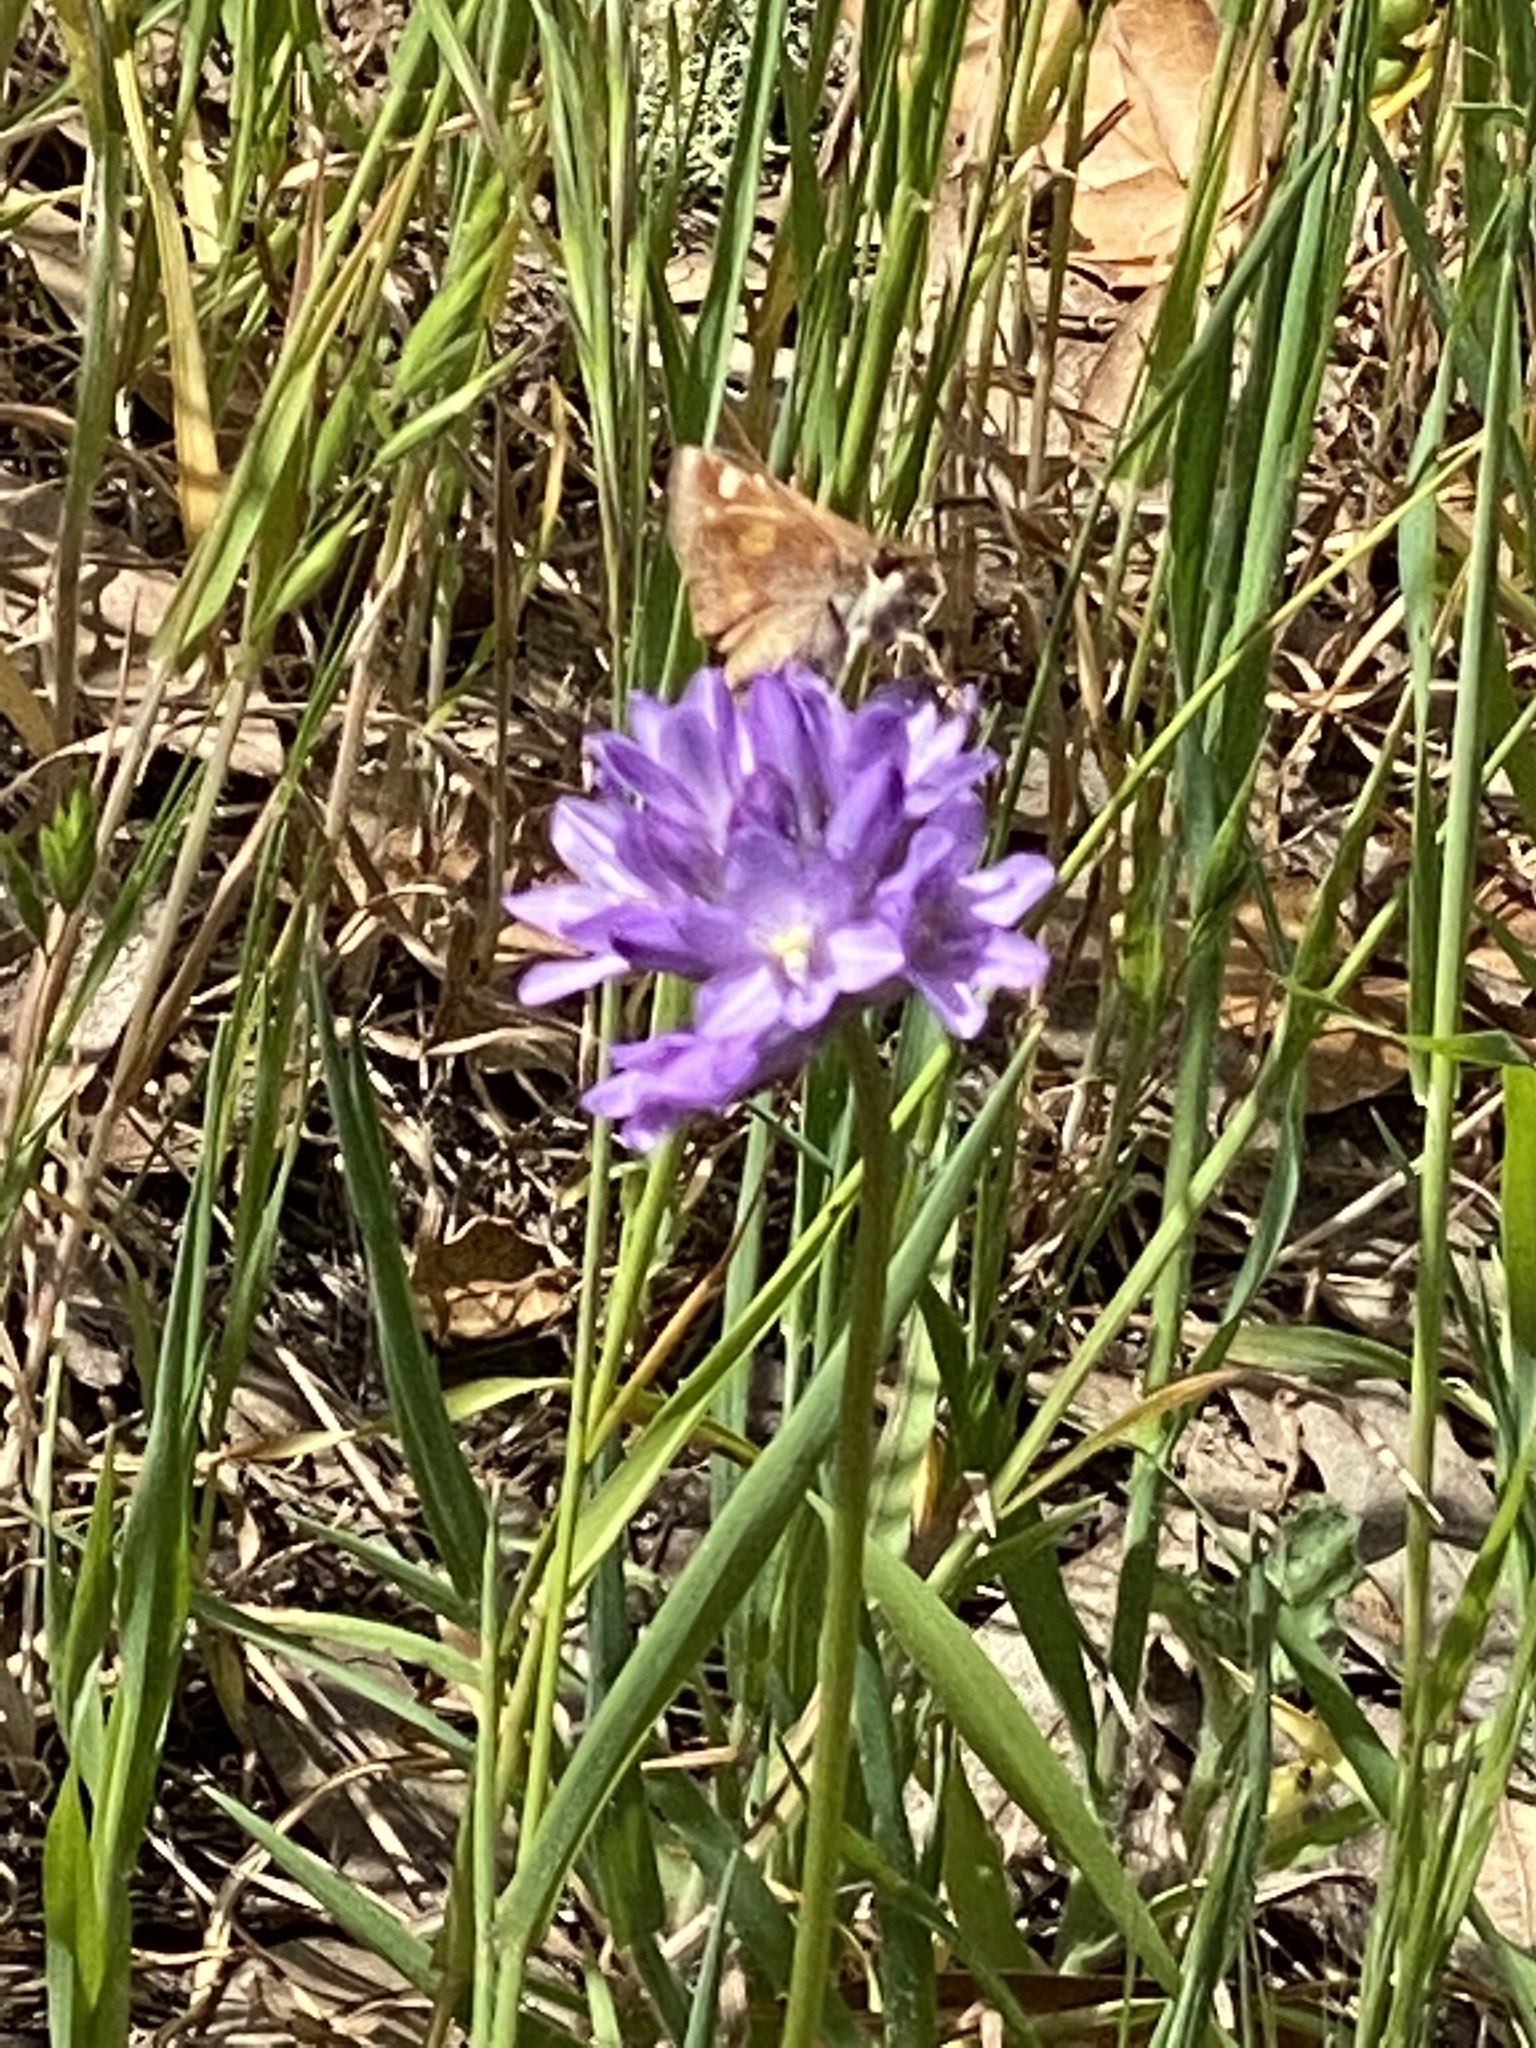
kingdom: Animalia
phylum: Arthropoda
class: Insecta
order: Lepidoptera
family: Hesperiidae
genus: Lon
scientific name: Lon melane
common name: Umber skipper
